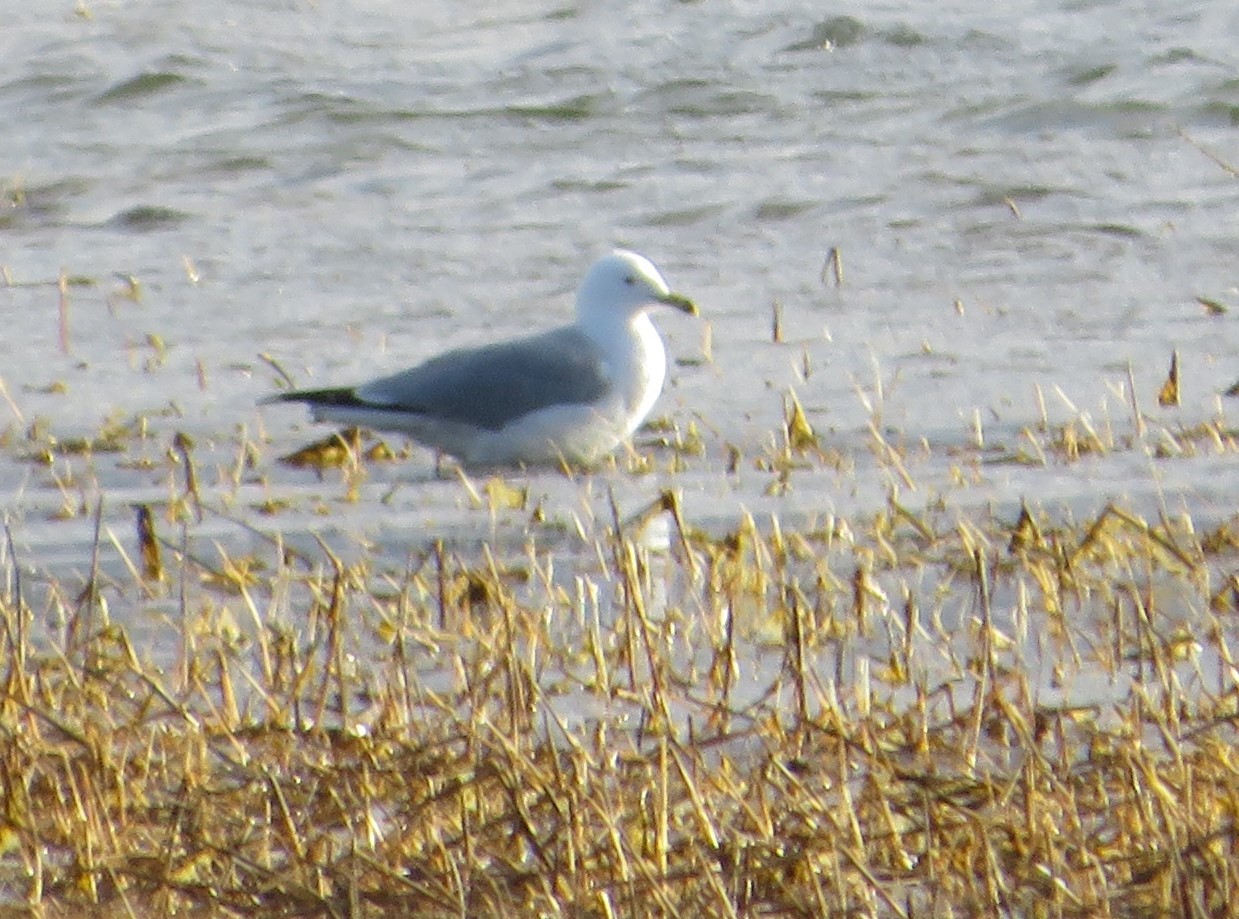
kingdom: Animalia
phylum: Chordata
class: Aves
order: Charadriiformes
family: Laridae
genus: Larus
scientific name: Larus delawarensis
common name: Ring-billed gull
